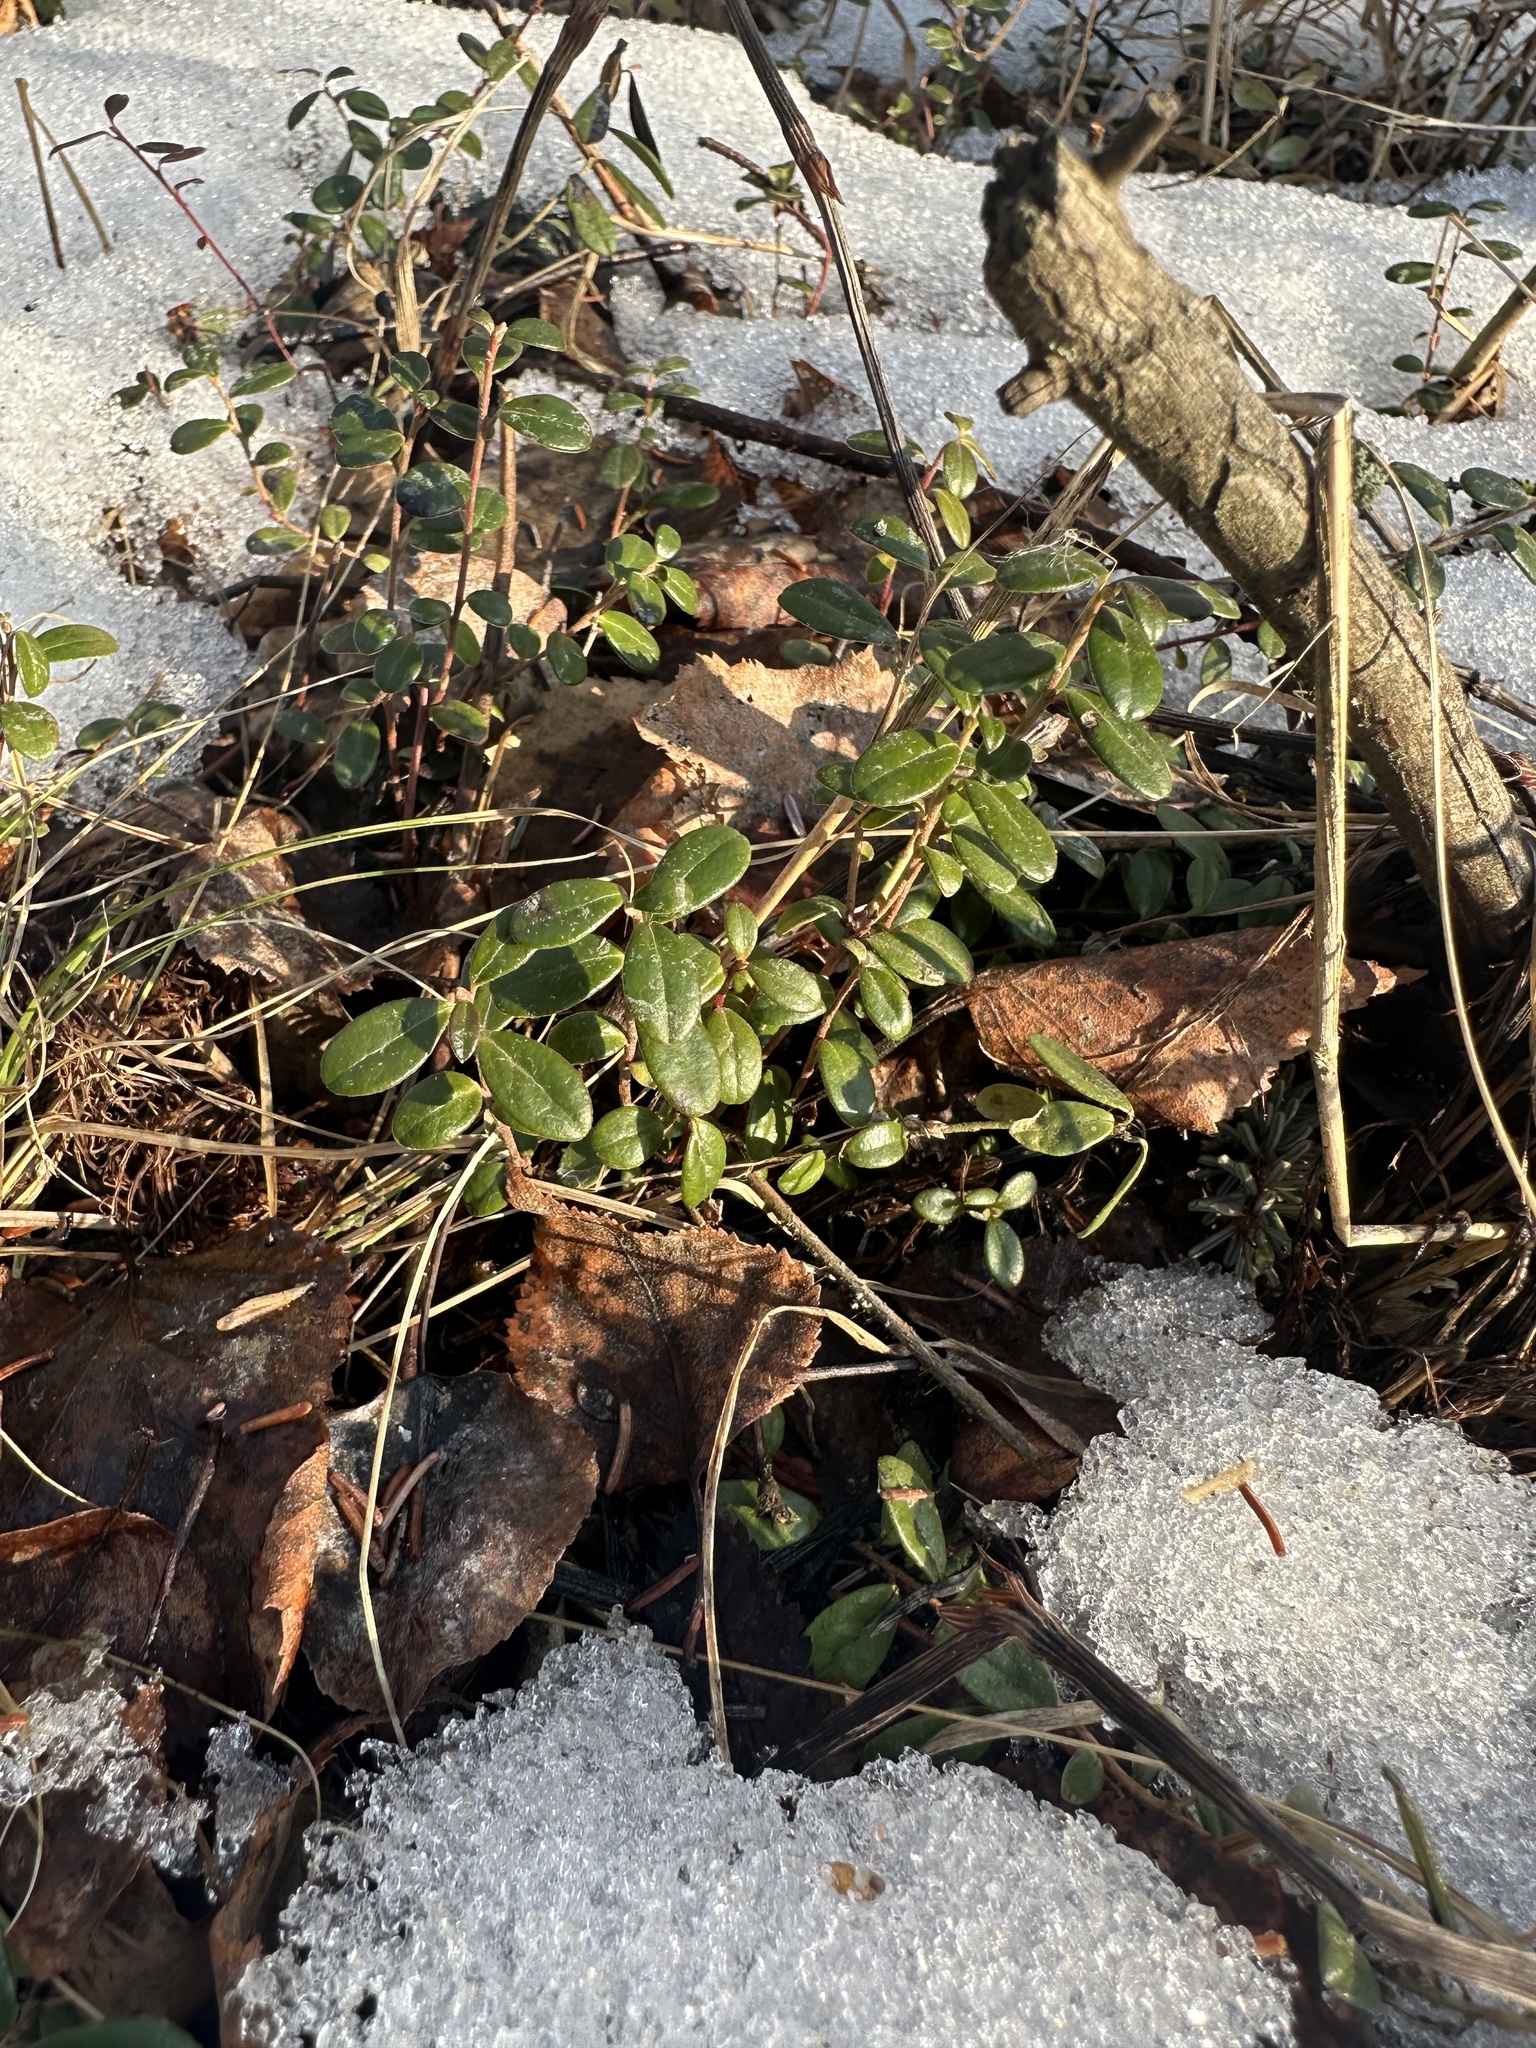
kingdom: Plantae
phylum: Tracheophyta
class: Magnoliopsida
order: Ericales
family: Ericaceae
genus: Vaccinium
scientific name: Vaccinium vitis-idaea
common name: Cowberry
